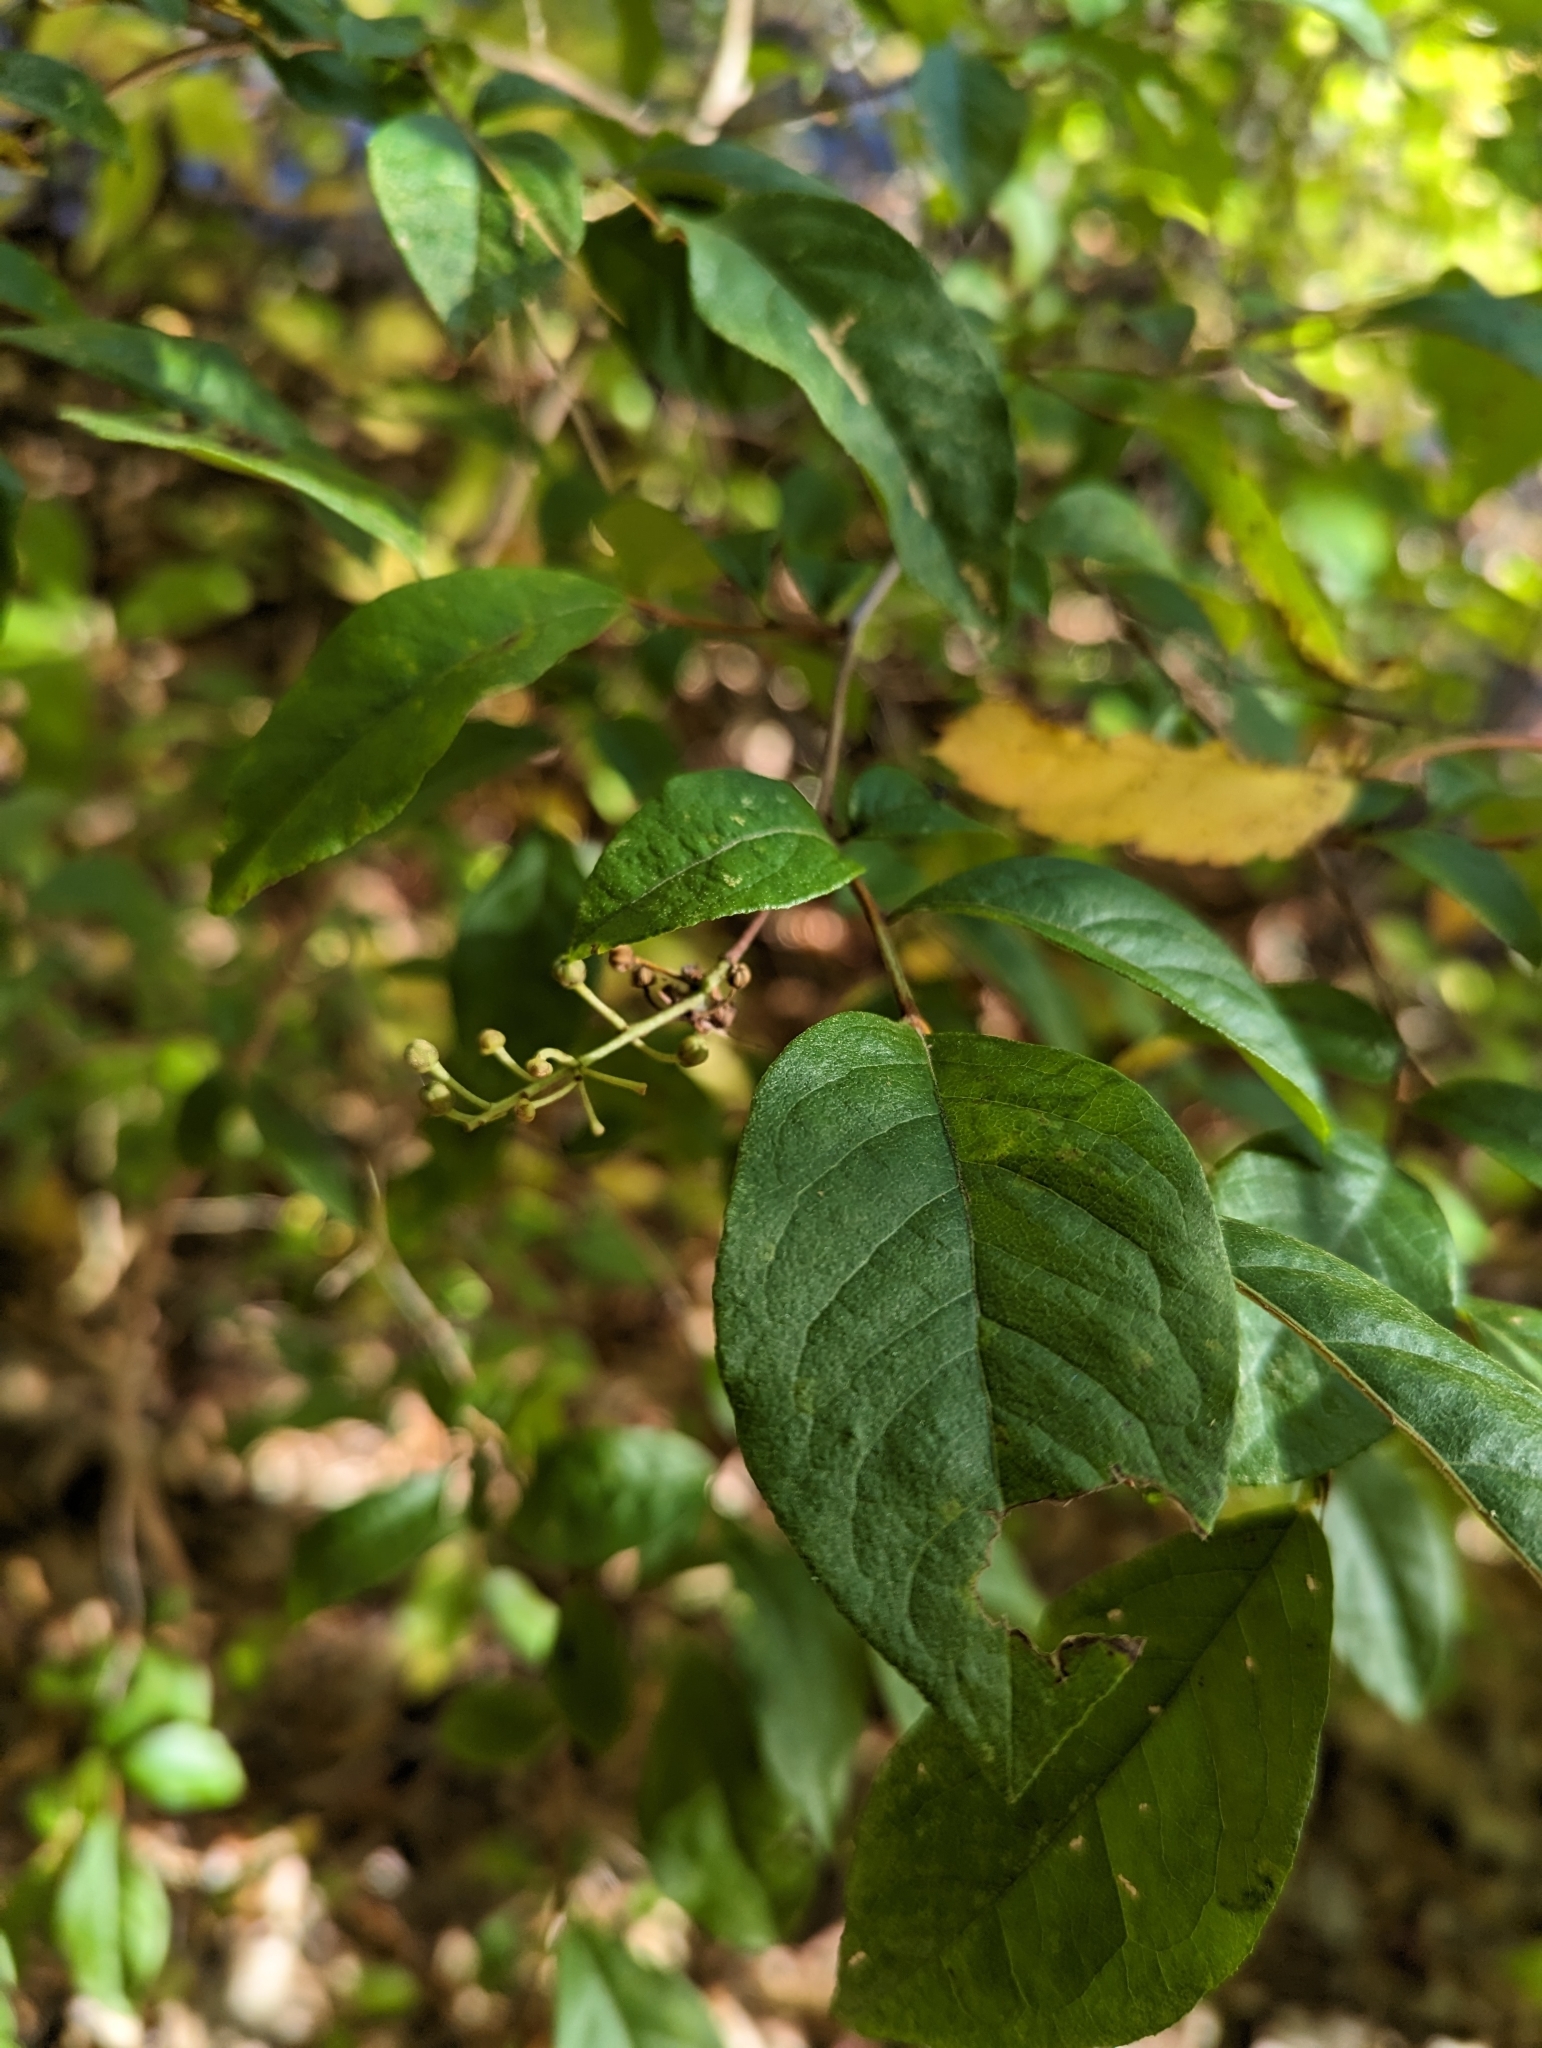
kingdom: Plantae
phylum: Tracheophyta
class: Magnoliopsida
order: Ericales
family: Ericaceae
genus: Lyonia
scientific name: Lyonia ligustrina
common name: Maleberry
